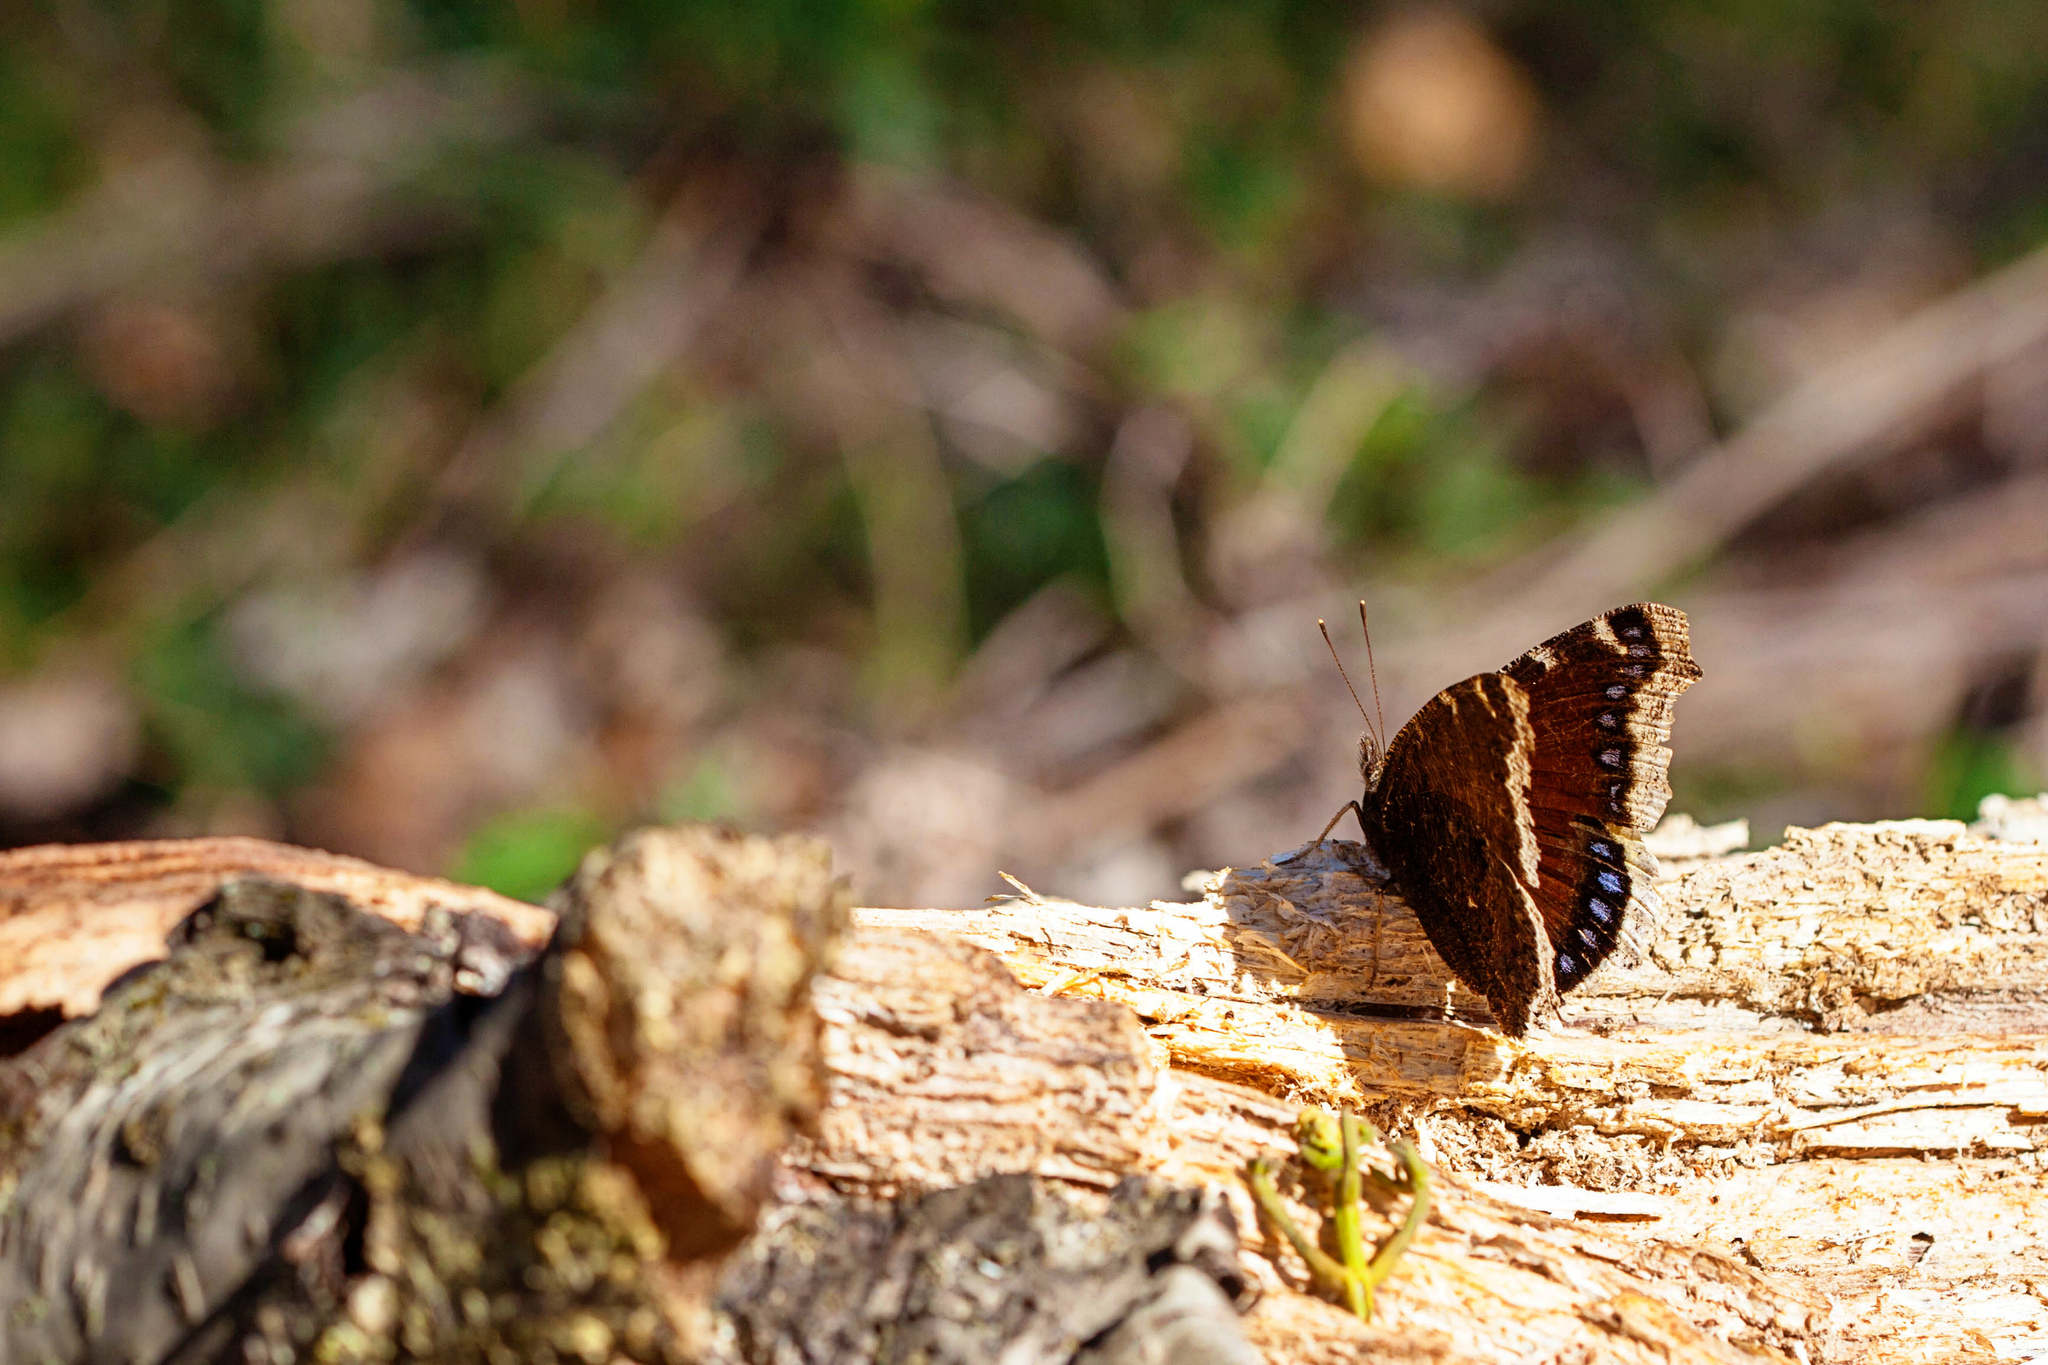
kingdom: Animalia
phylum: Arthropoda
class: Insecta
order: Lepidoptera
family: Nymphalidae
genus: Nymphalis
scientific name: Nymphalis antiopa
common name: Camberwell beauty
